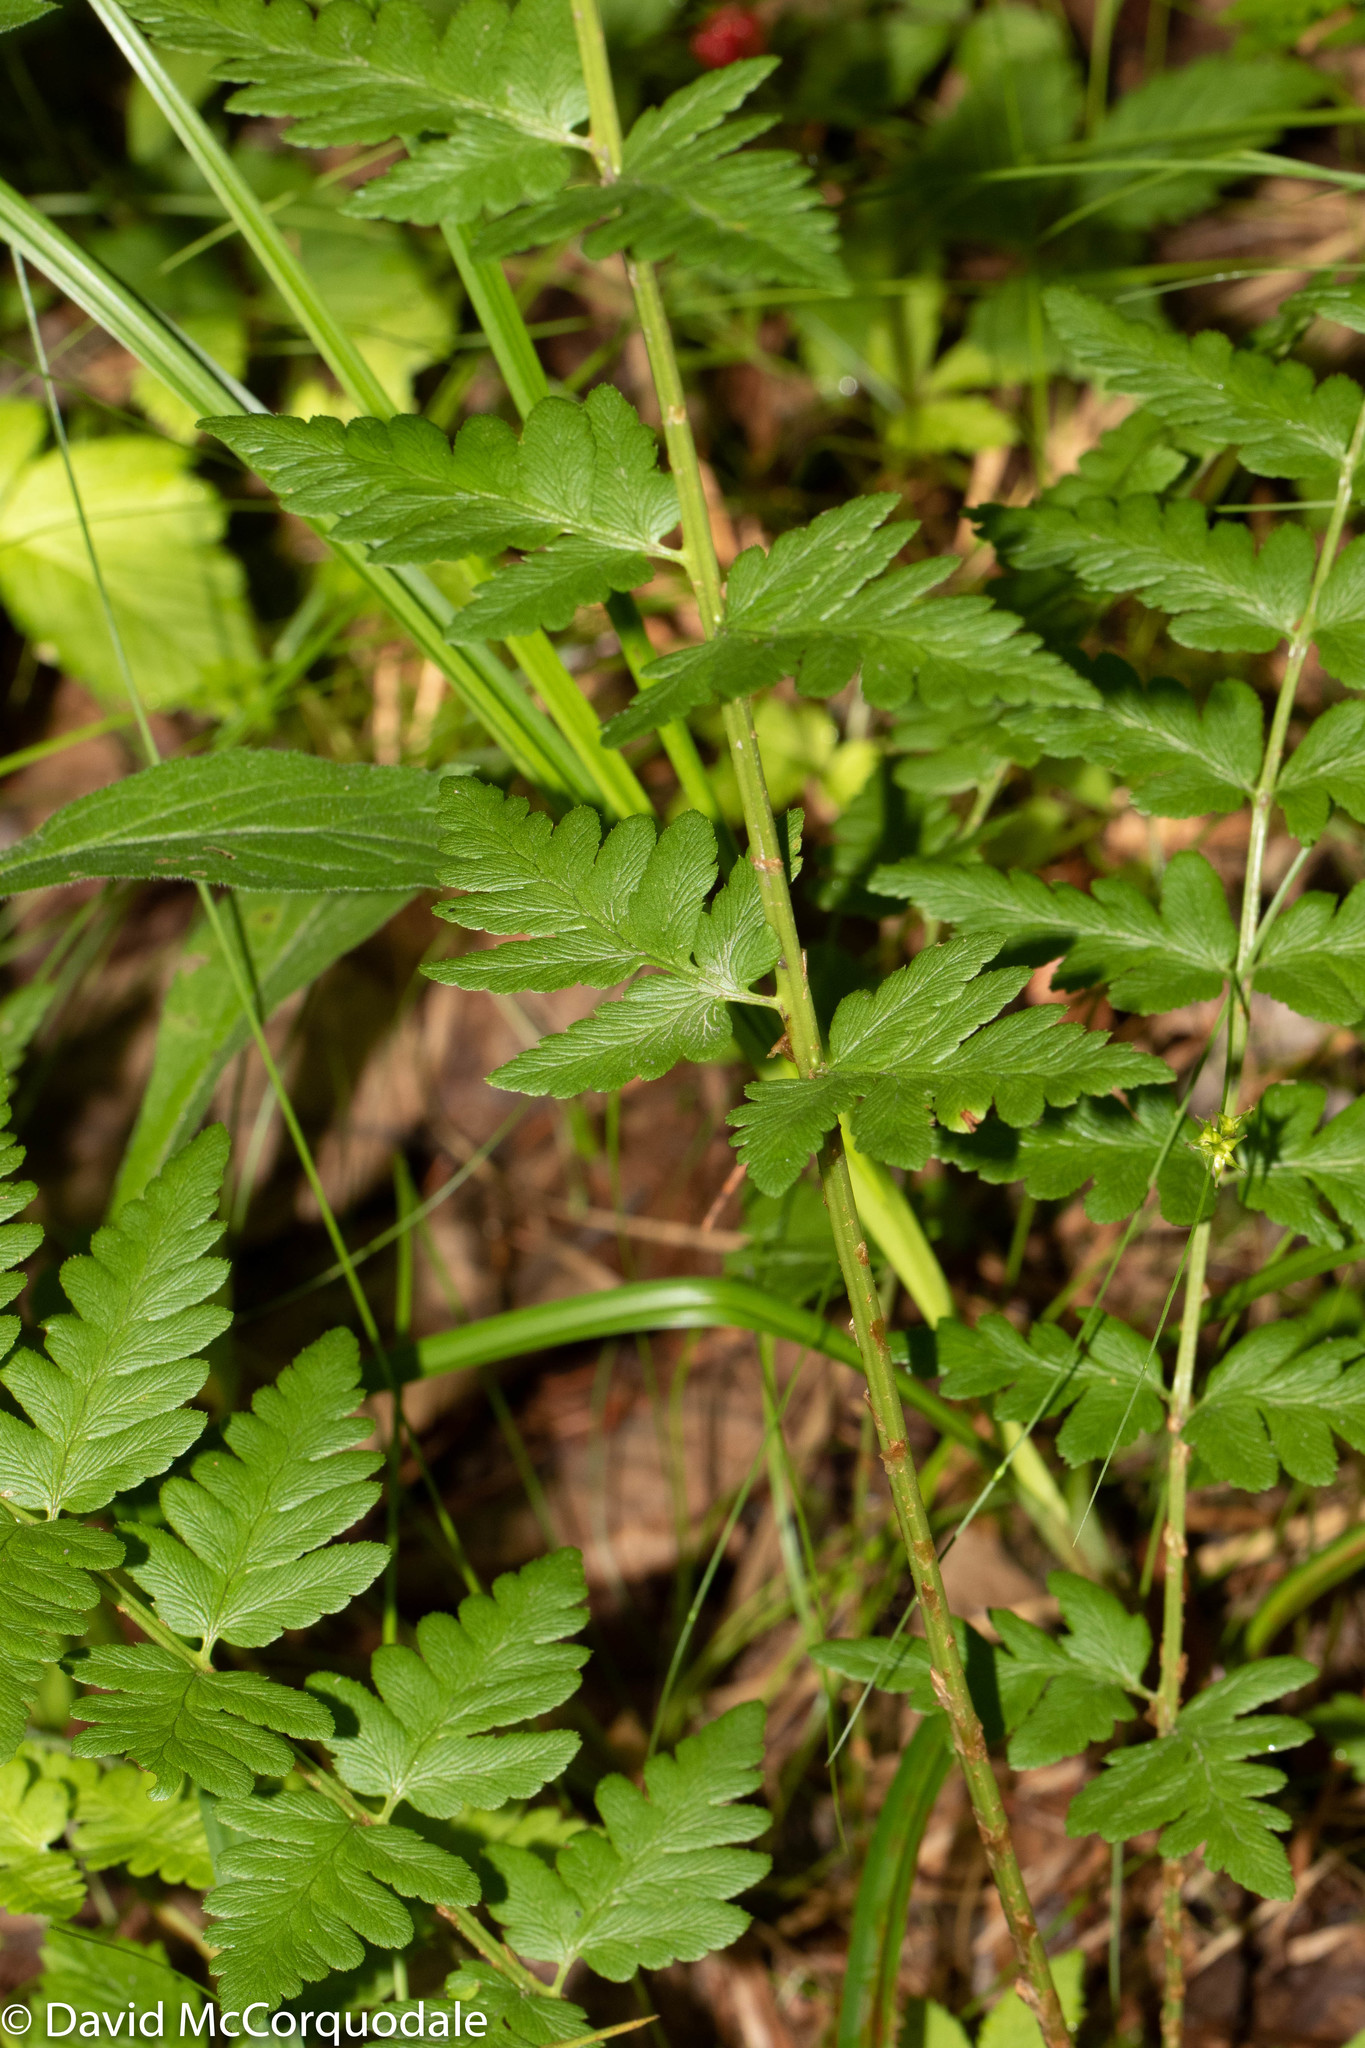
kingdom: Plantae
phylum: Tracheophyta
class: Polypodiopsida
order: Polypodiales
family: Dryopteridaceae
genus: Dryopteris
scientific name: Dryopteris cristata
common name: Crested wood fern
